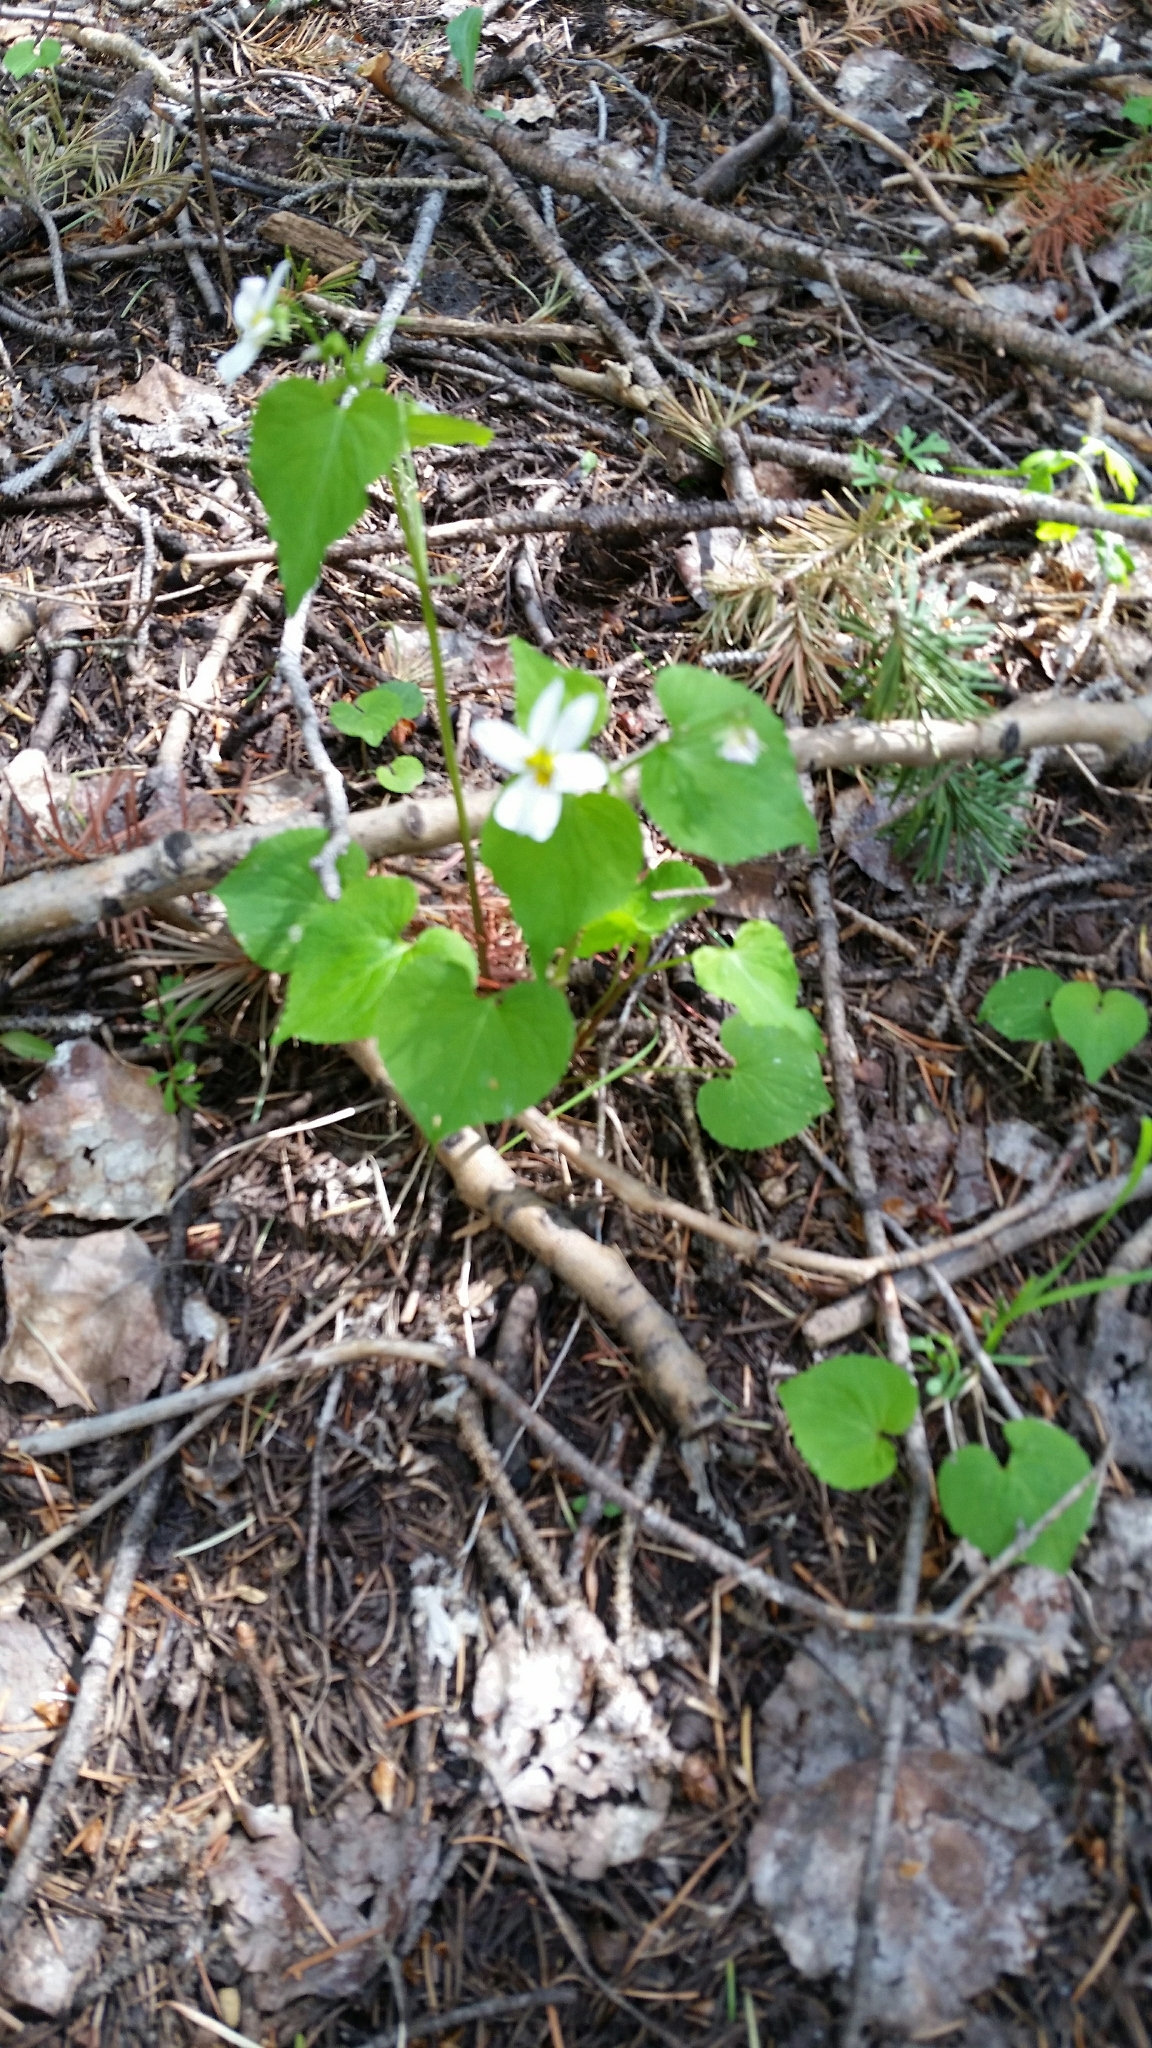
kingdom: Plantae
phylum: Tracheophyta
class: Magnoliopsida
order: Malpighiales
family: Violaceae
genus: Viola
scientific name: Viola canadensis
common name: Canada violet
